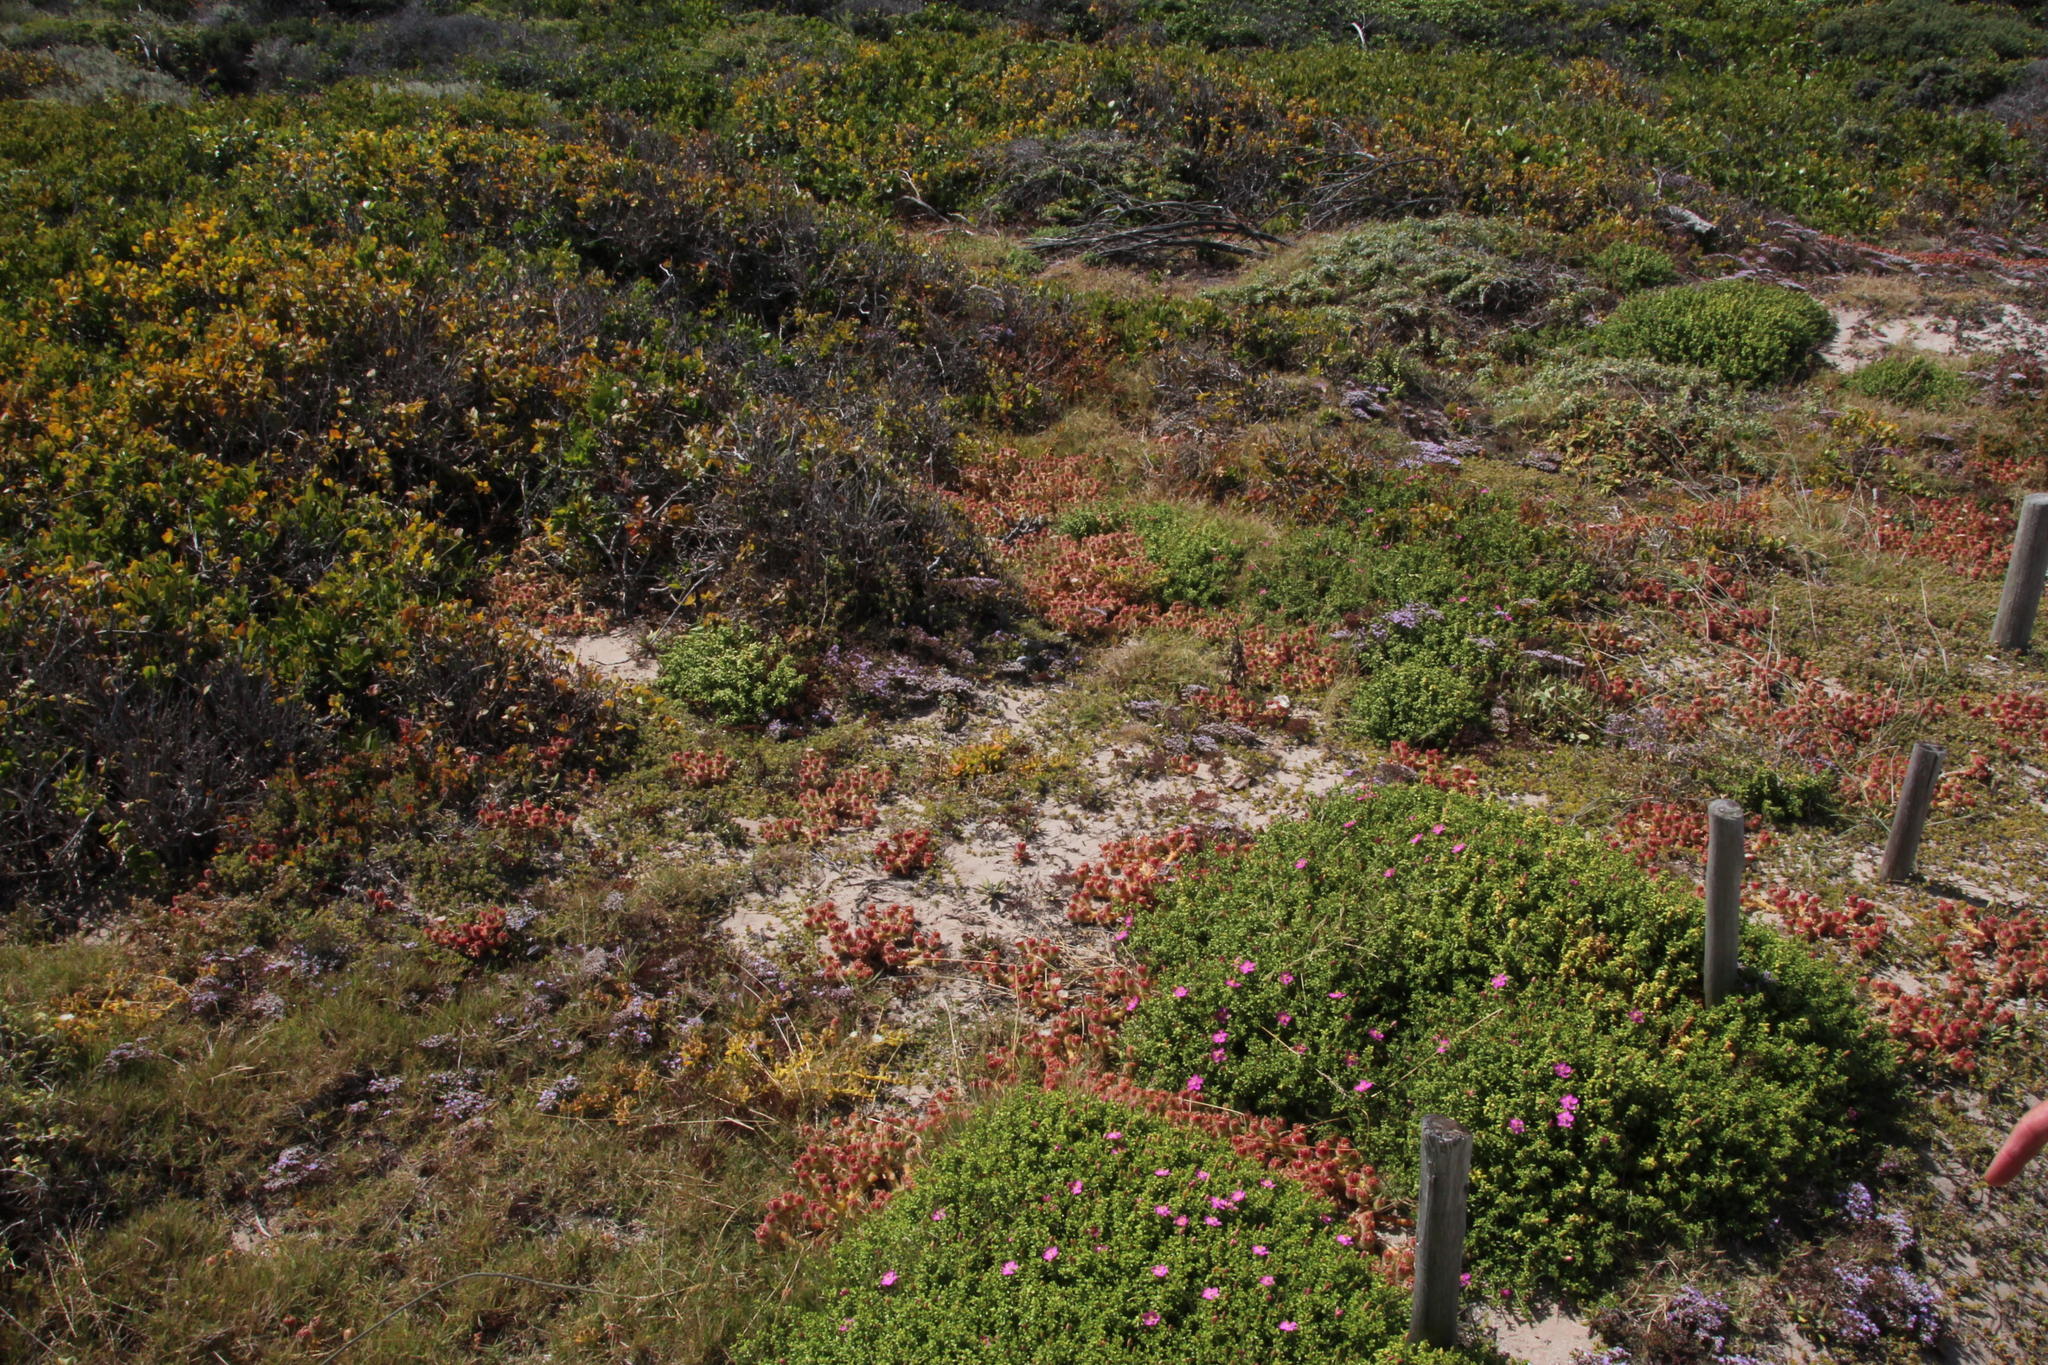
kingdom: Plantae
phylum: Tracheophyta
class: Magnoliopsida
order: Caryophyllales
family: Aizoaceae
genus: Mesembryanthemum
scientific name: Mesembryanthemum crystallinum
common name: Common iceplant
